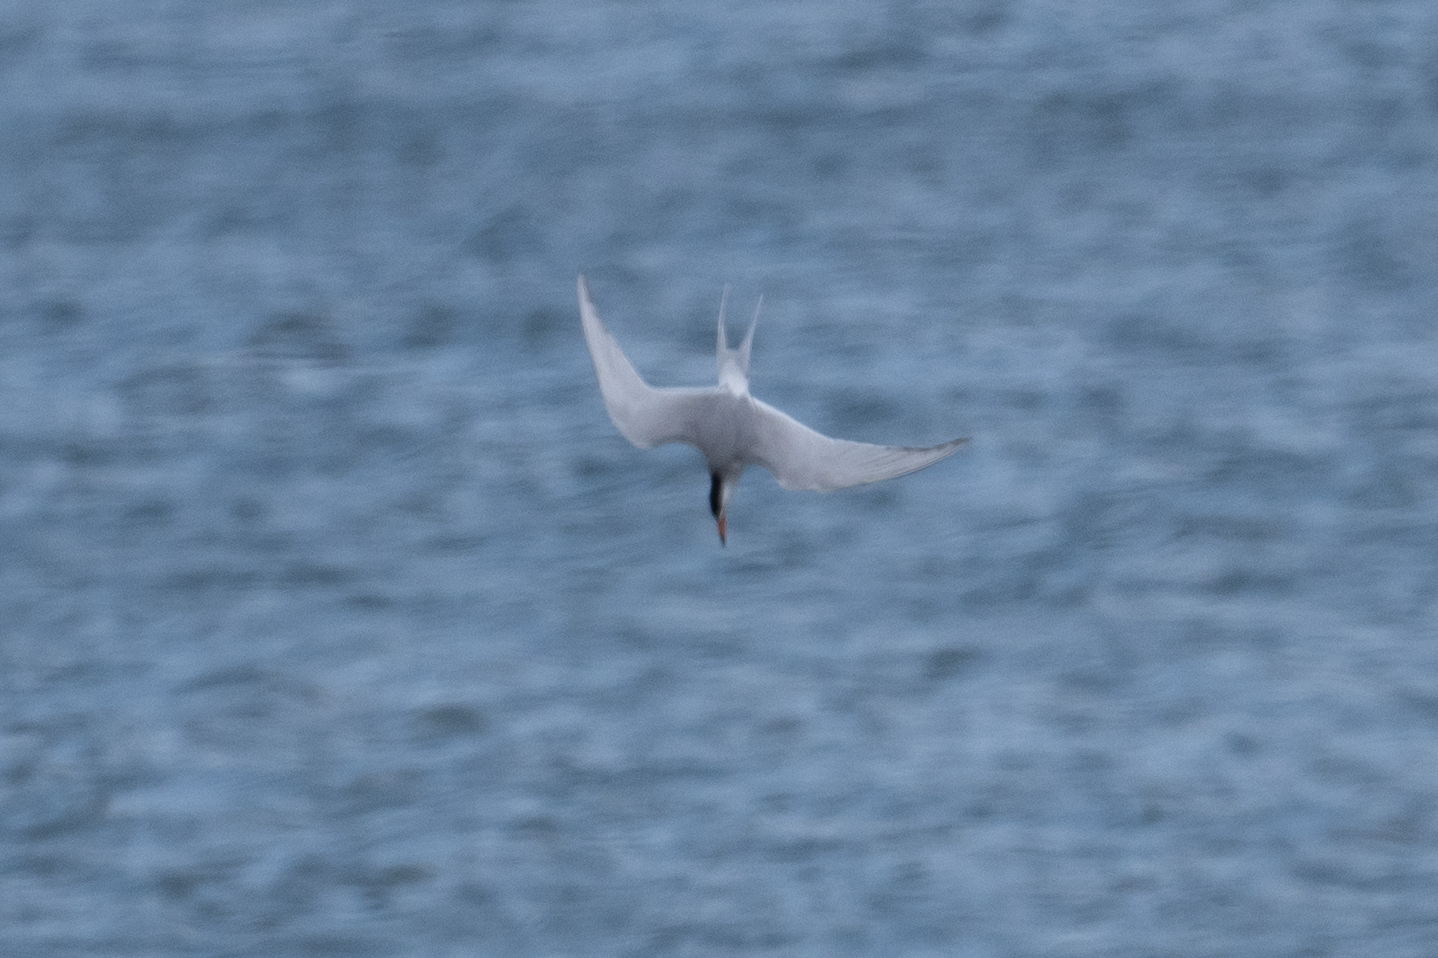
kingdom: Animalia
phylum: Chordata
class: Aves
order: Charadriiformes
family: Laridae
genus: Sterna
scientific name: Sterna forsteri
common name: Forster's tern
